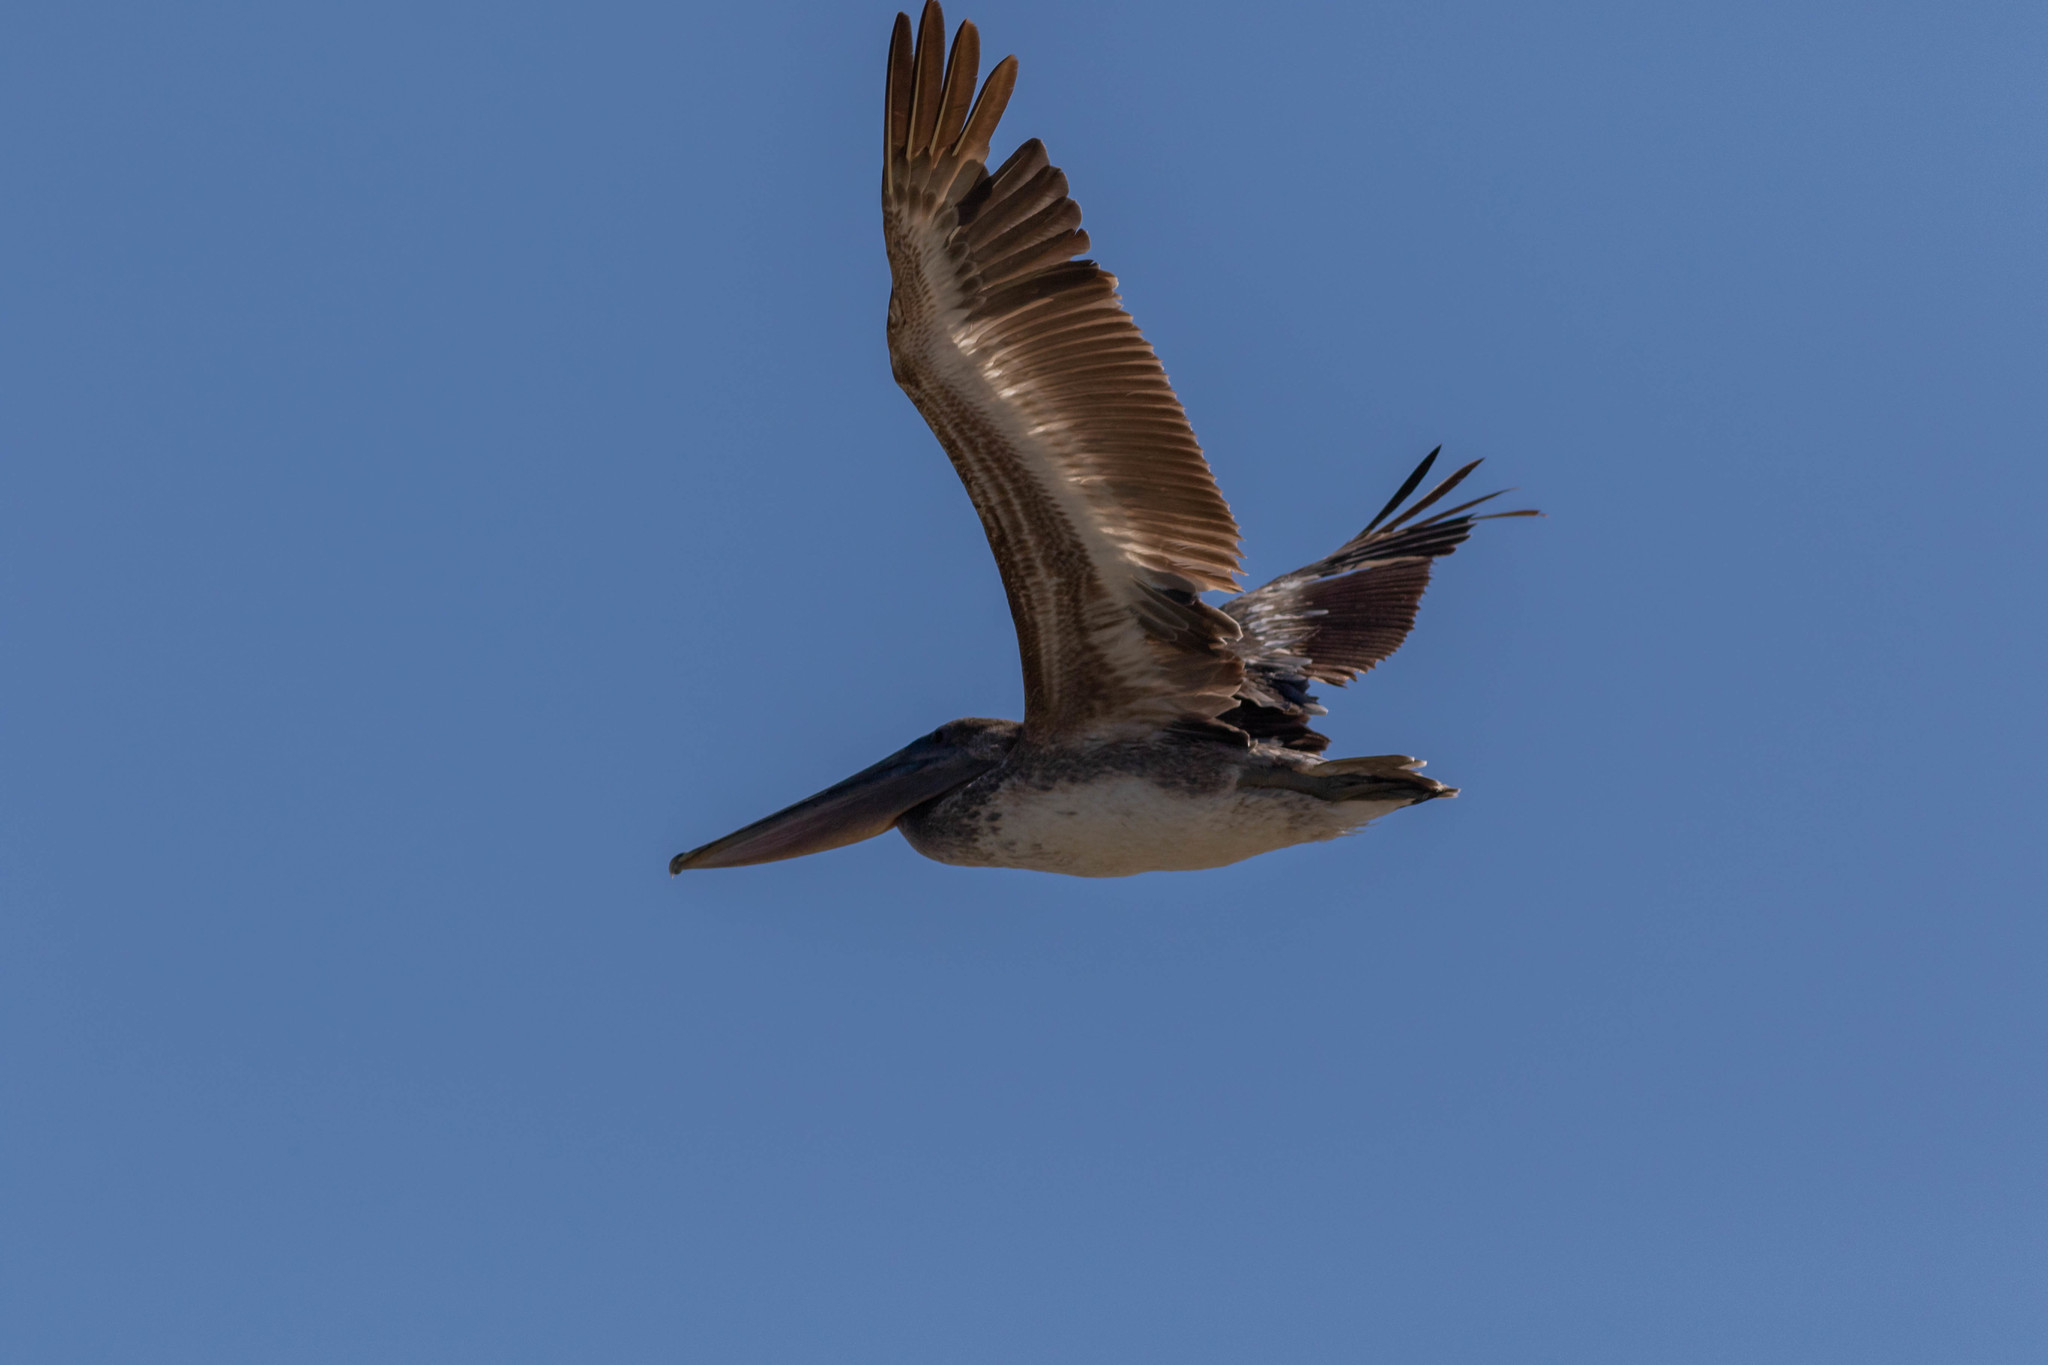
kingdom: Animalia
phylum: Chordata
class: Aves
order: Pelecaniformes
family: Pelecanidae
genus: Pelecanus
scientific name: Pelecanus occidentalis
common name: Brown pelican
